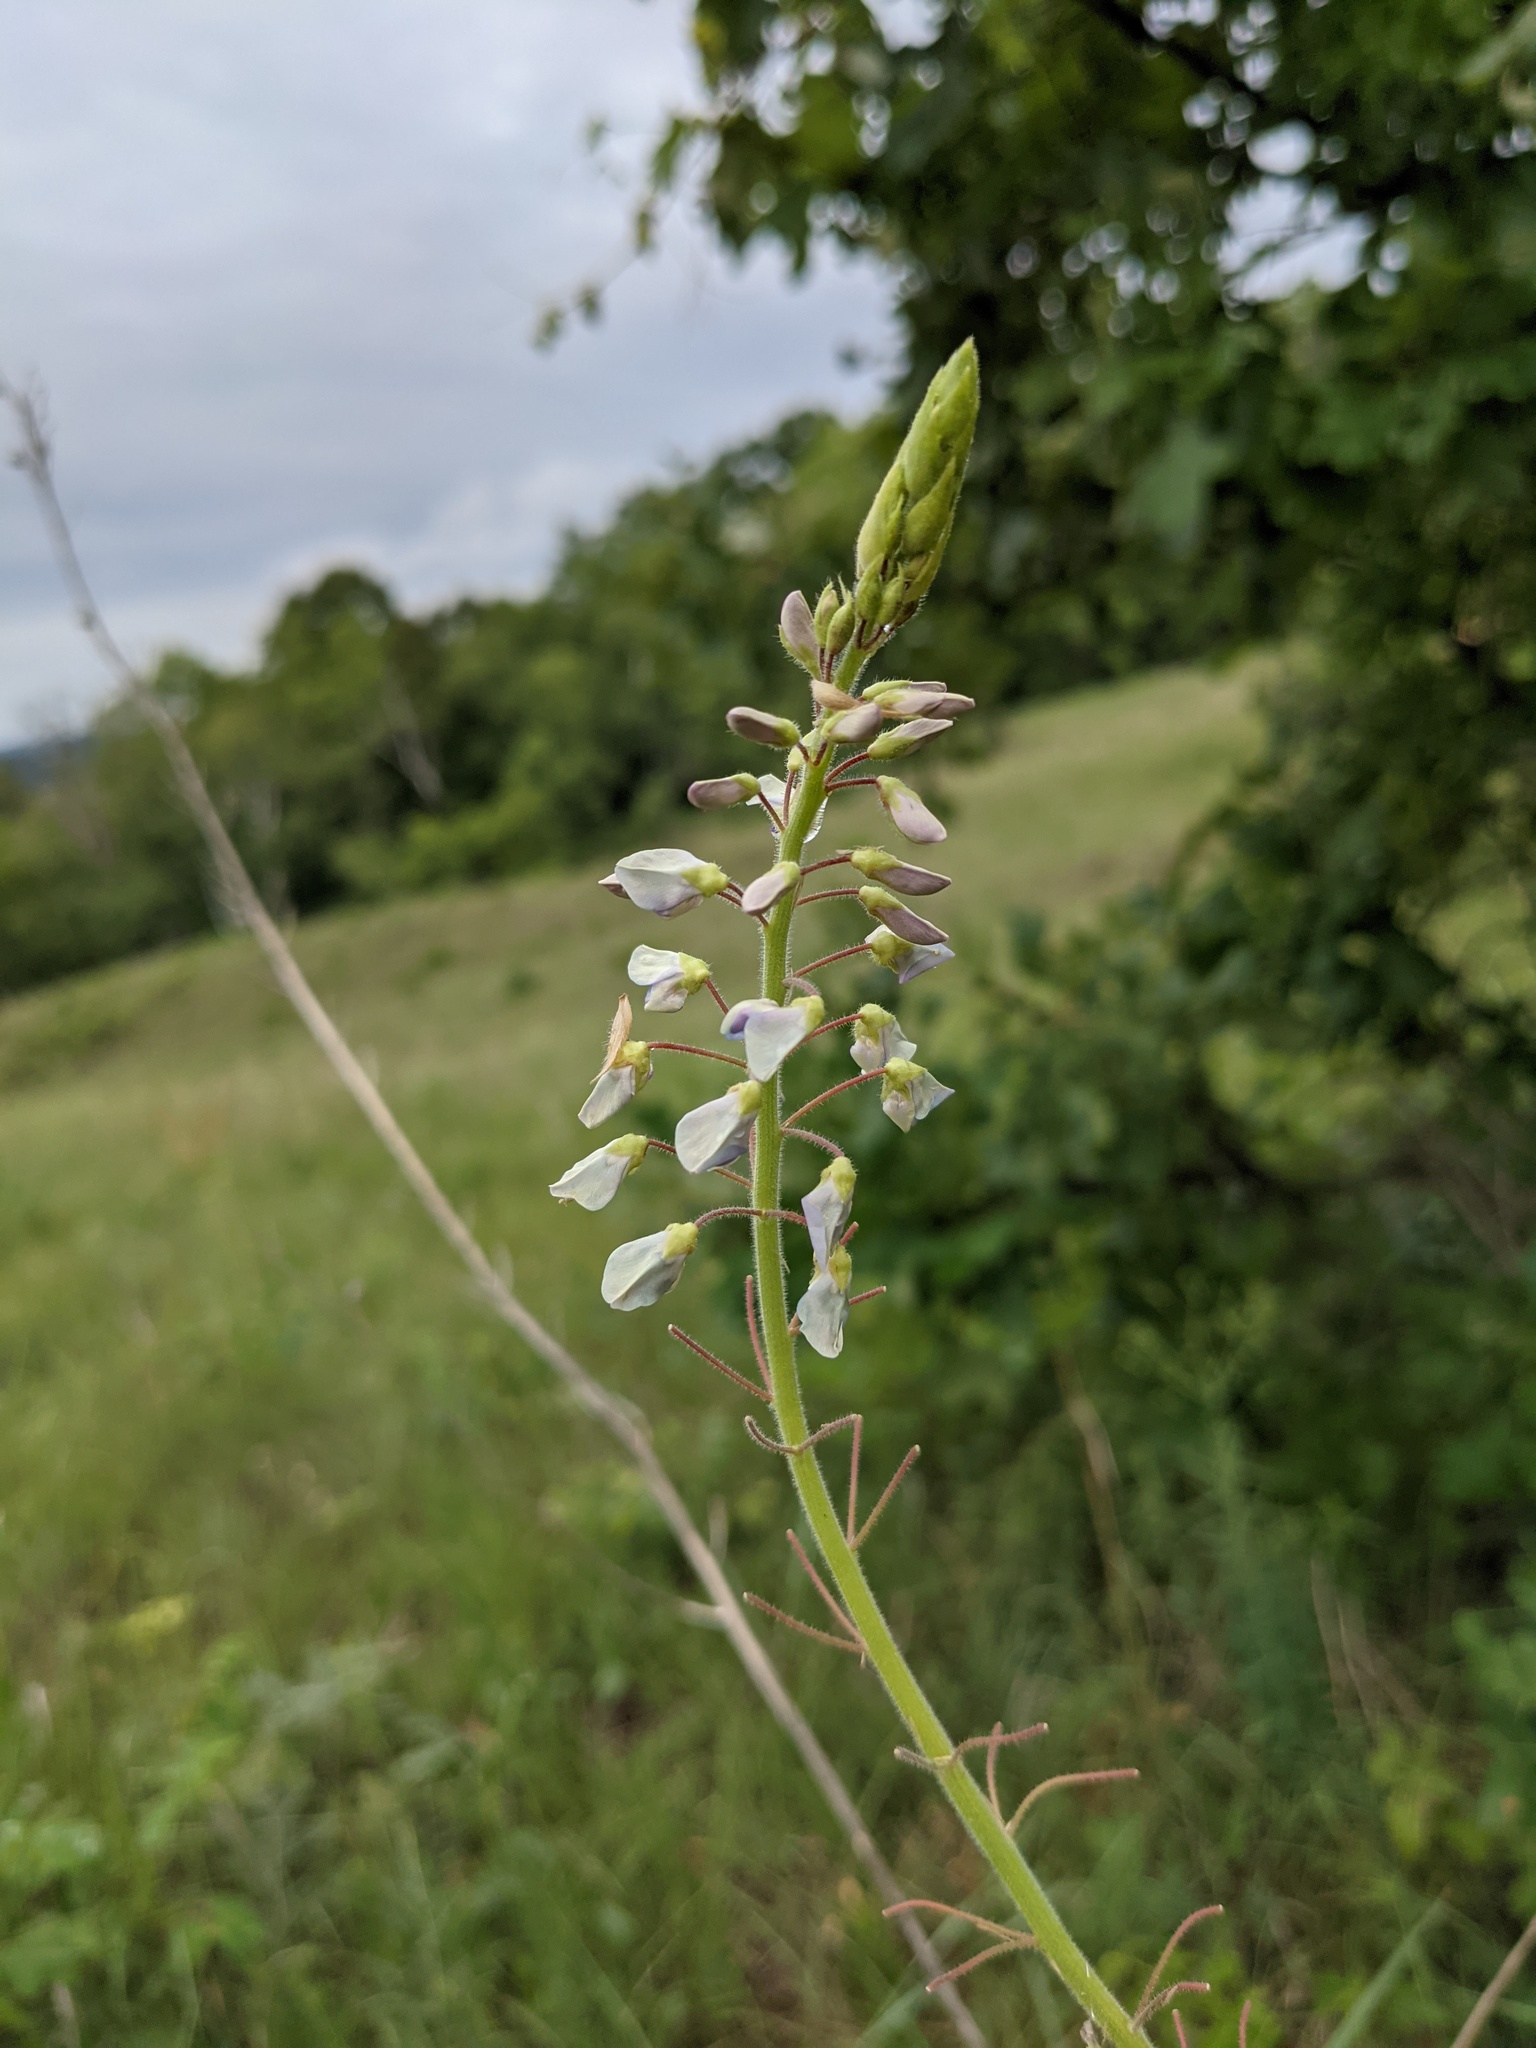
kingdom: Plantae
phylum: Tracheophyta
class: Magnoliopsida
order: Fabales
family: Fabaceae
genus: Desmodium
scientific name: Desmodium illinoense
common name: Illinois tick-clover
